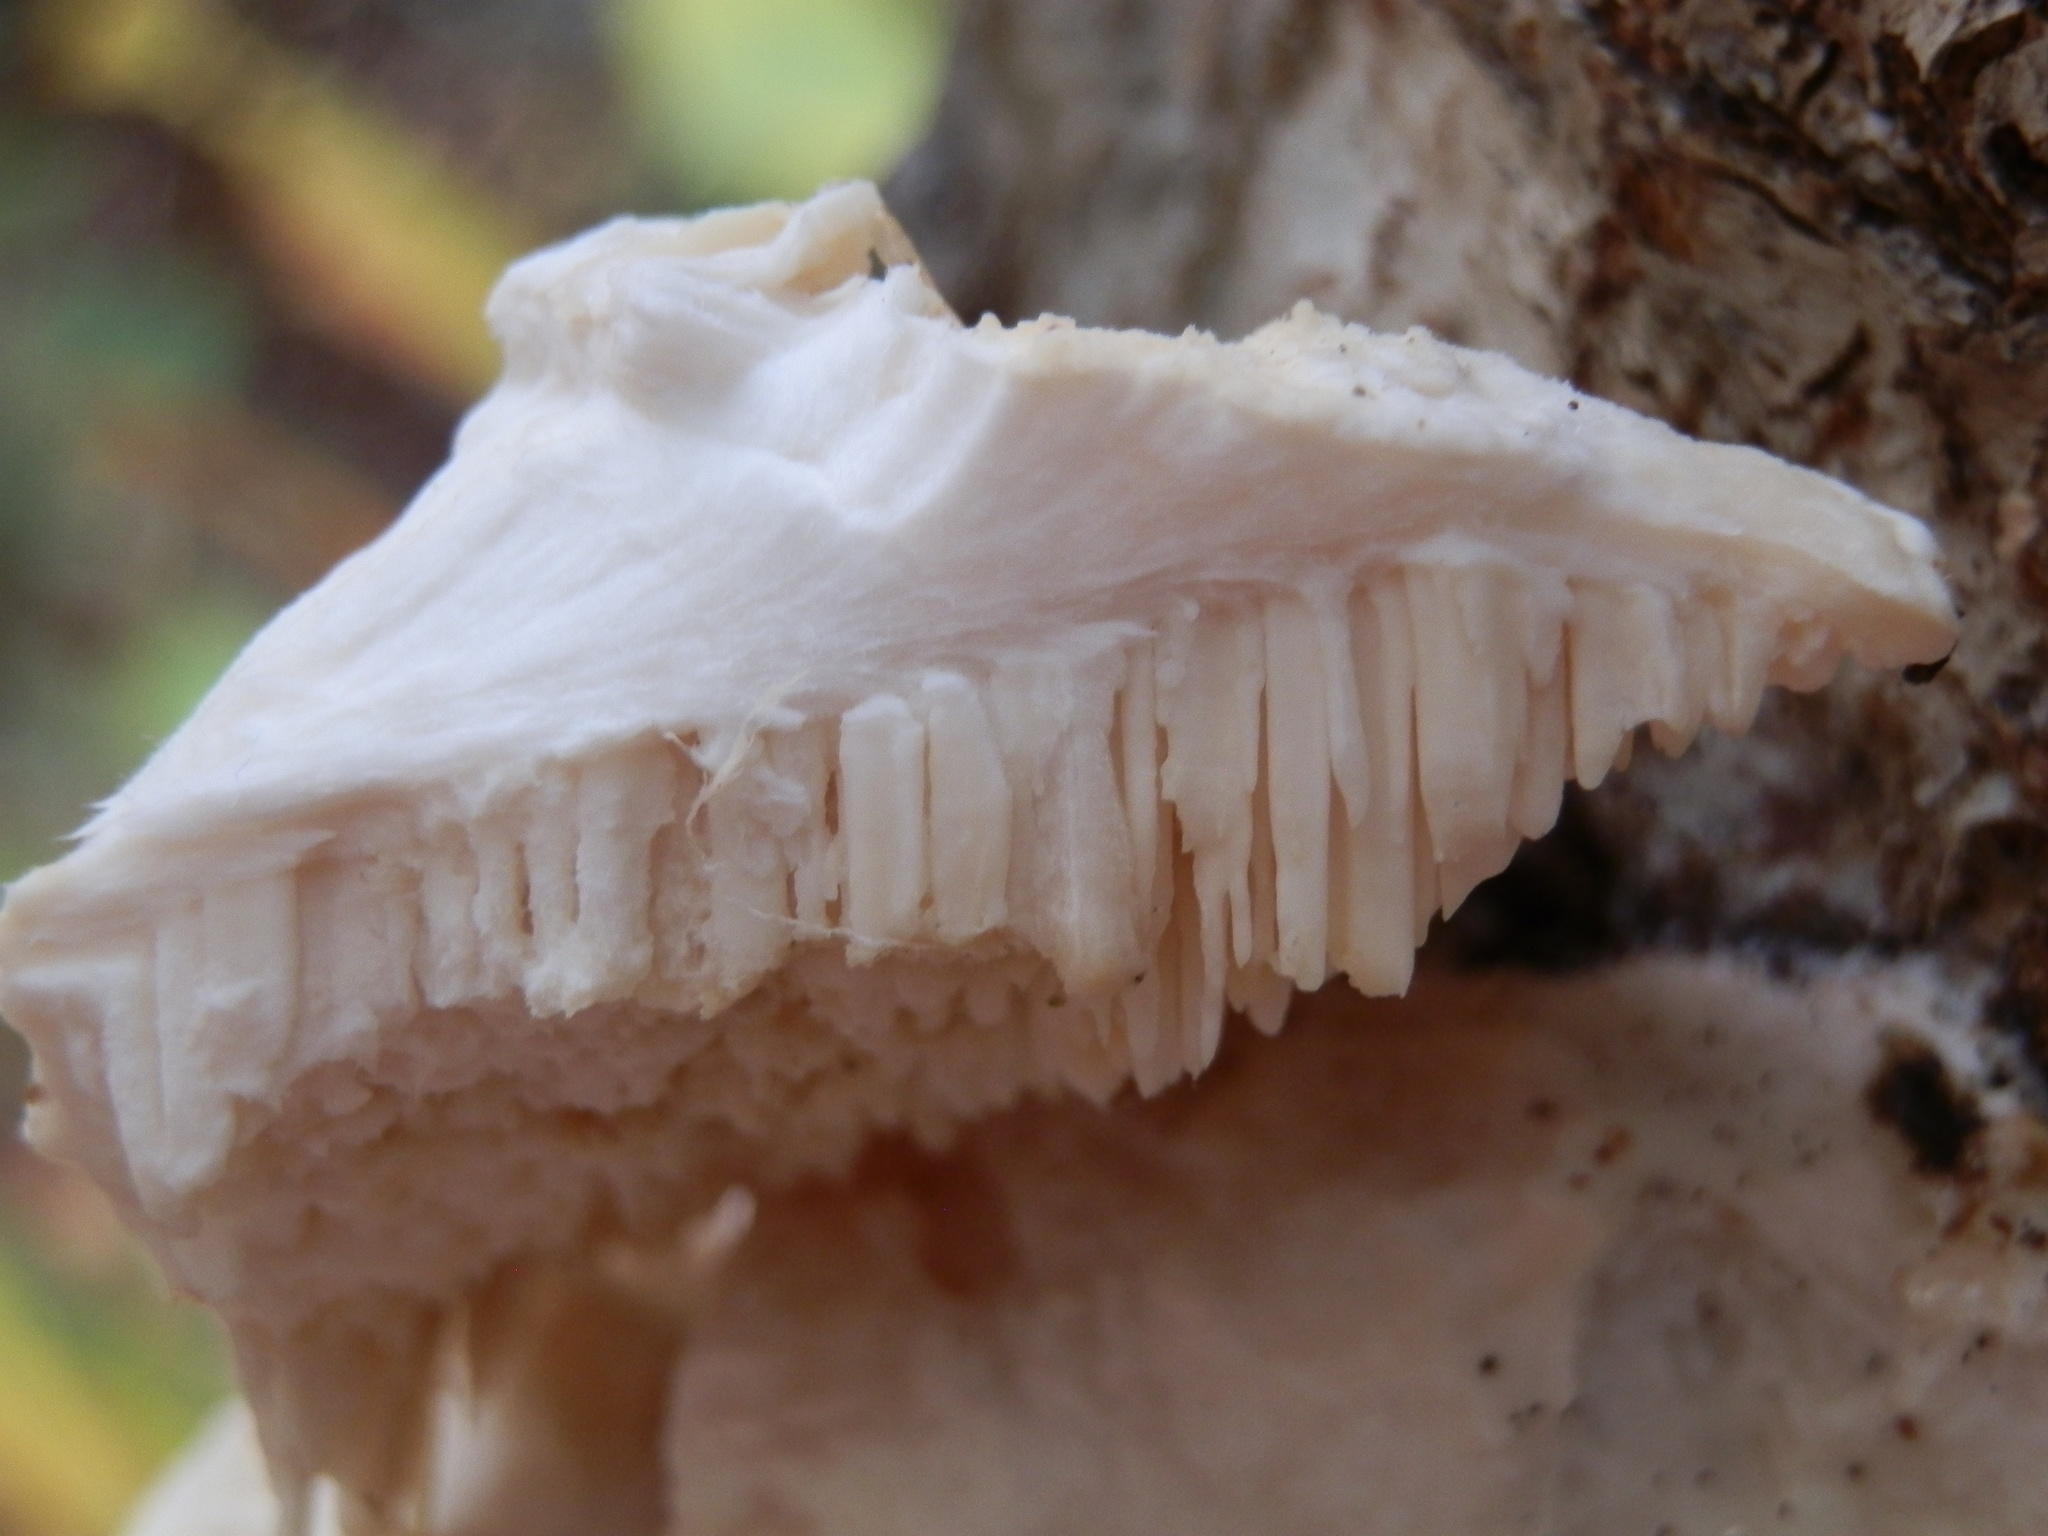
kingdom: Fungi
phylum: Basidiomycota
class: Agaricomycetes
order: Polyporales
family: Meruliaceae
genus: Irpiciporus
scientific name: Irpiciporus pachyodon
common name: Marshmallow polypore
